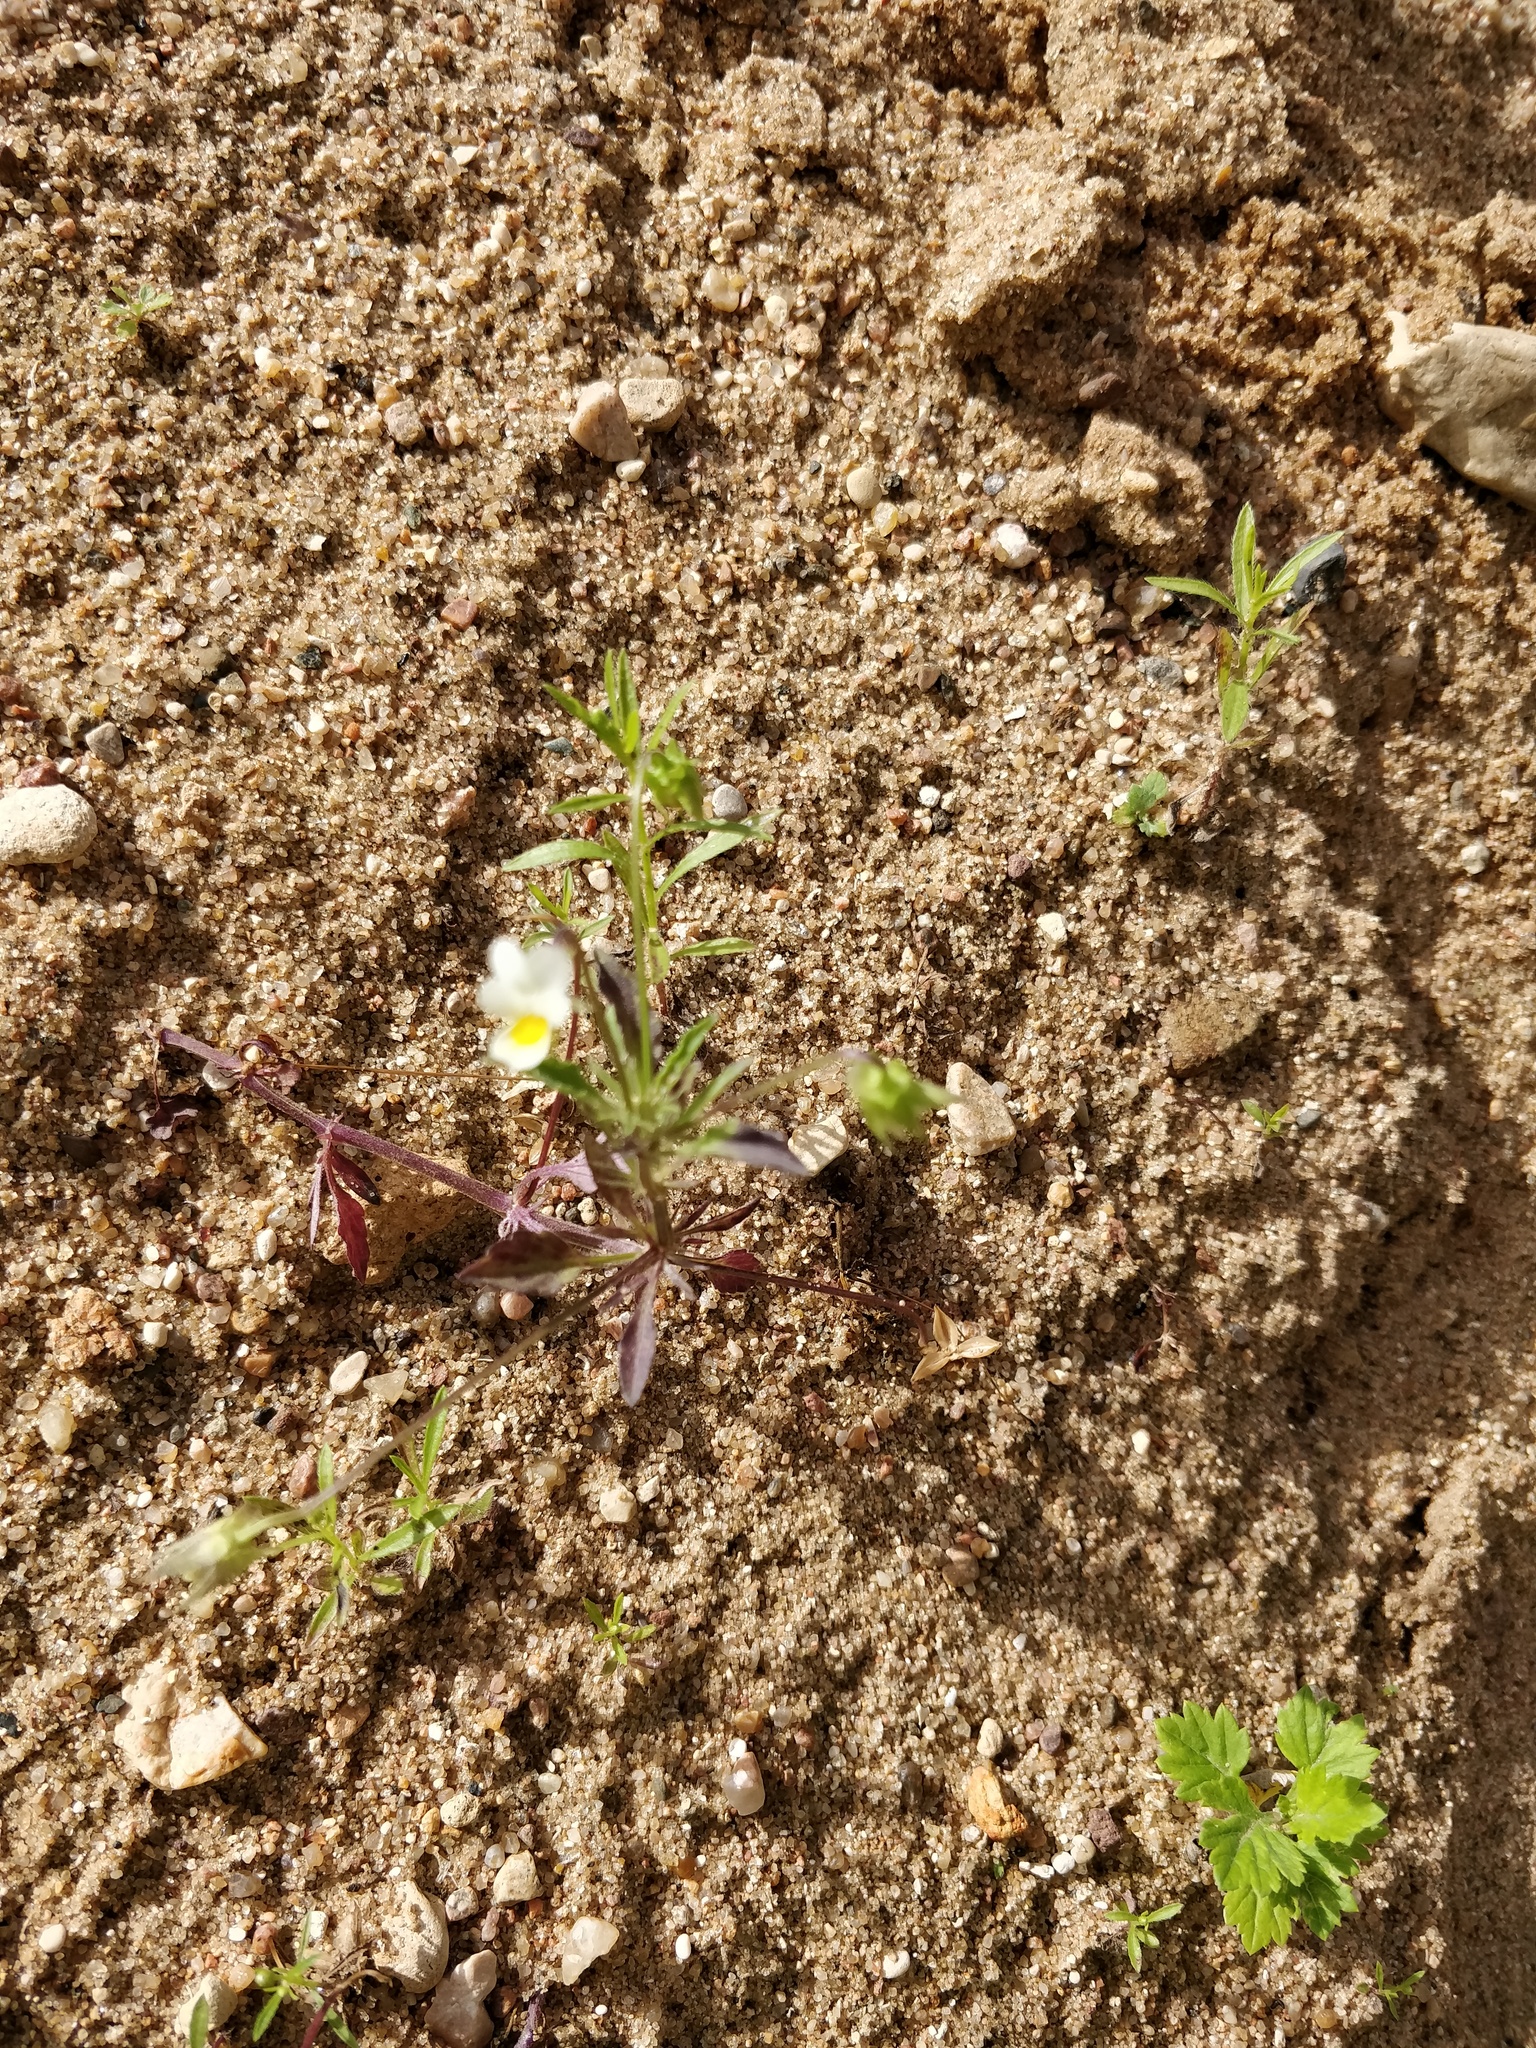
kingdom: Plantae
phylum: Tracheophyta
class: Magnoliopsida
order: Malpighiales
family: Violaceae
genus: Viola
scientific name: Viola arvensis
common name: Field pansy
